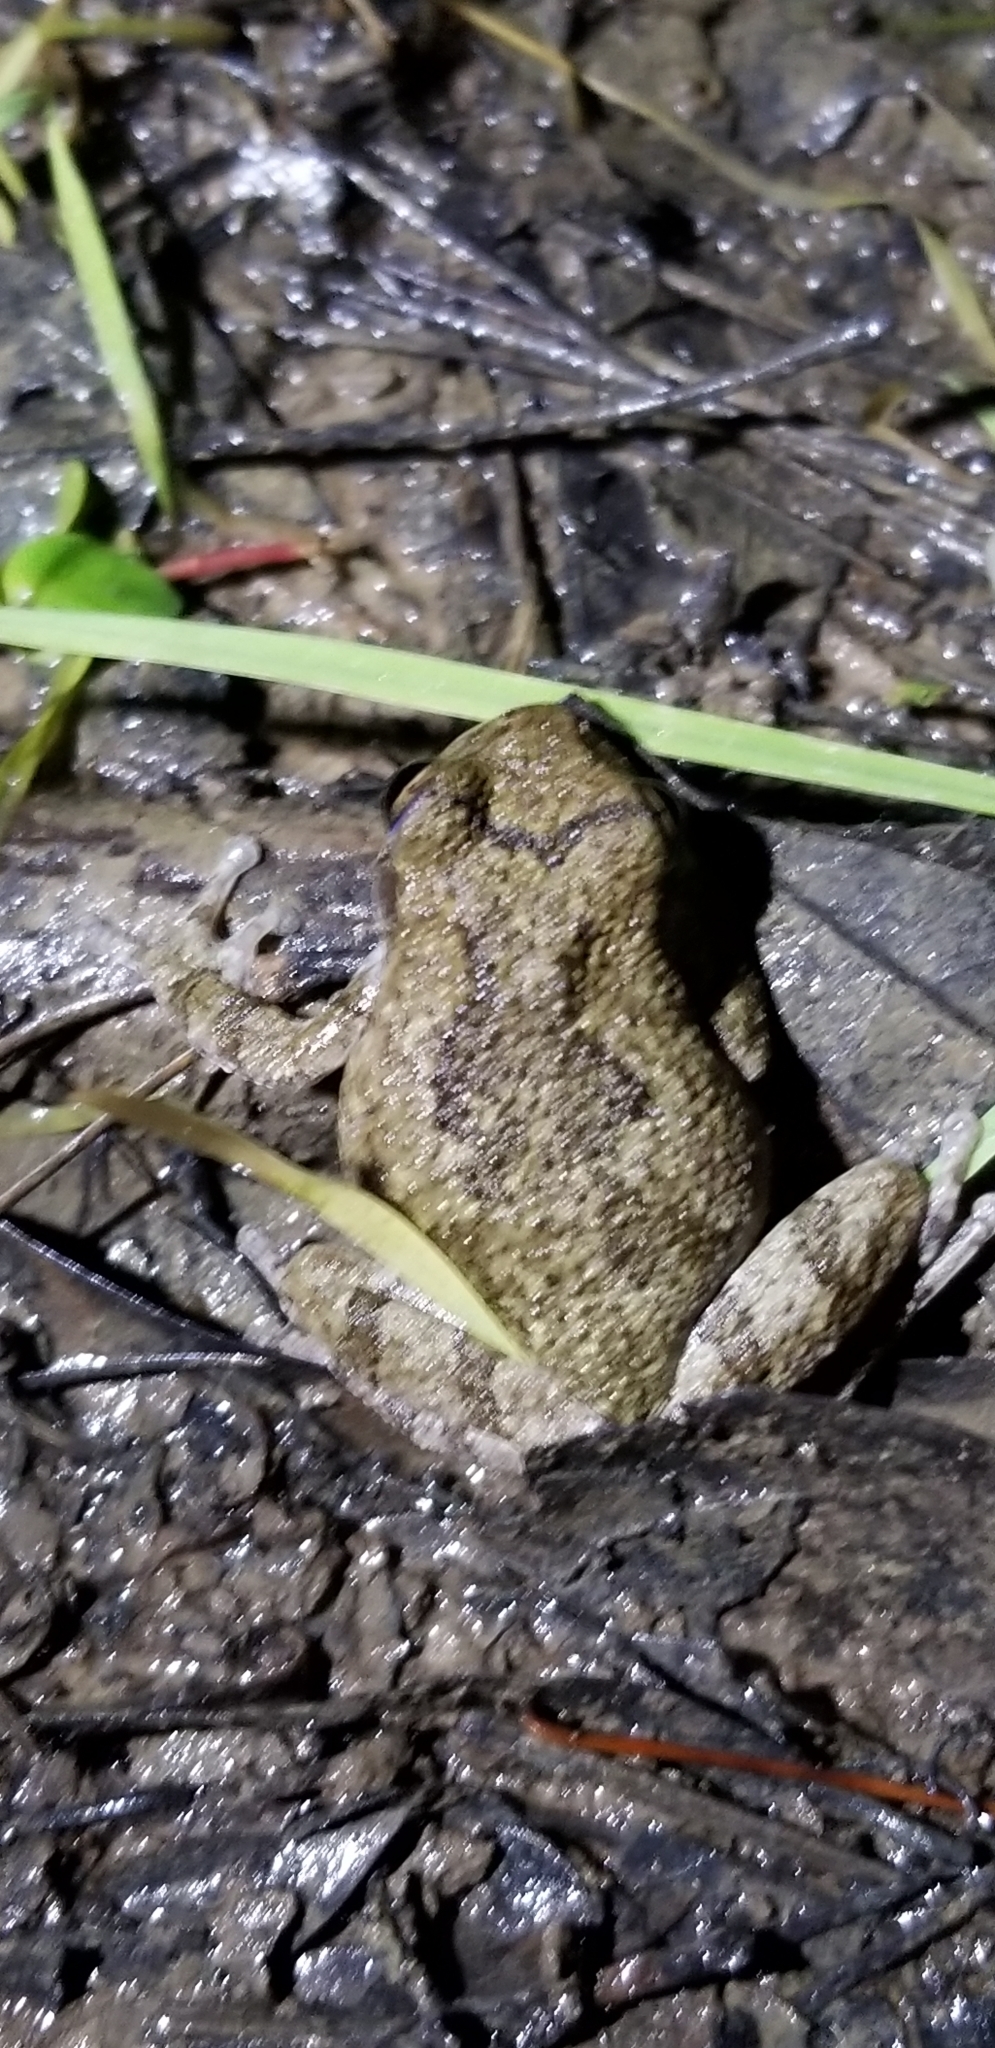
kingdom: Animalia
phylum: Chordata
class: Amphibia
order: Anura
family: Hylidae
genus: Dryophytes
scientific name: Dryophytes chrysoscelis
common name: Cope's gray treefrog
